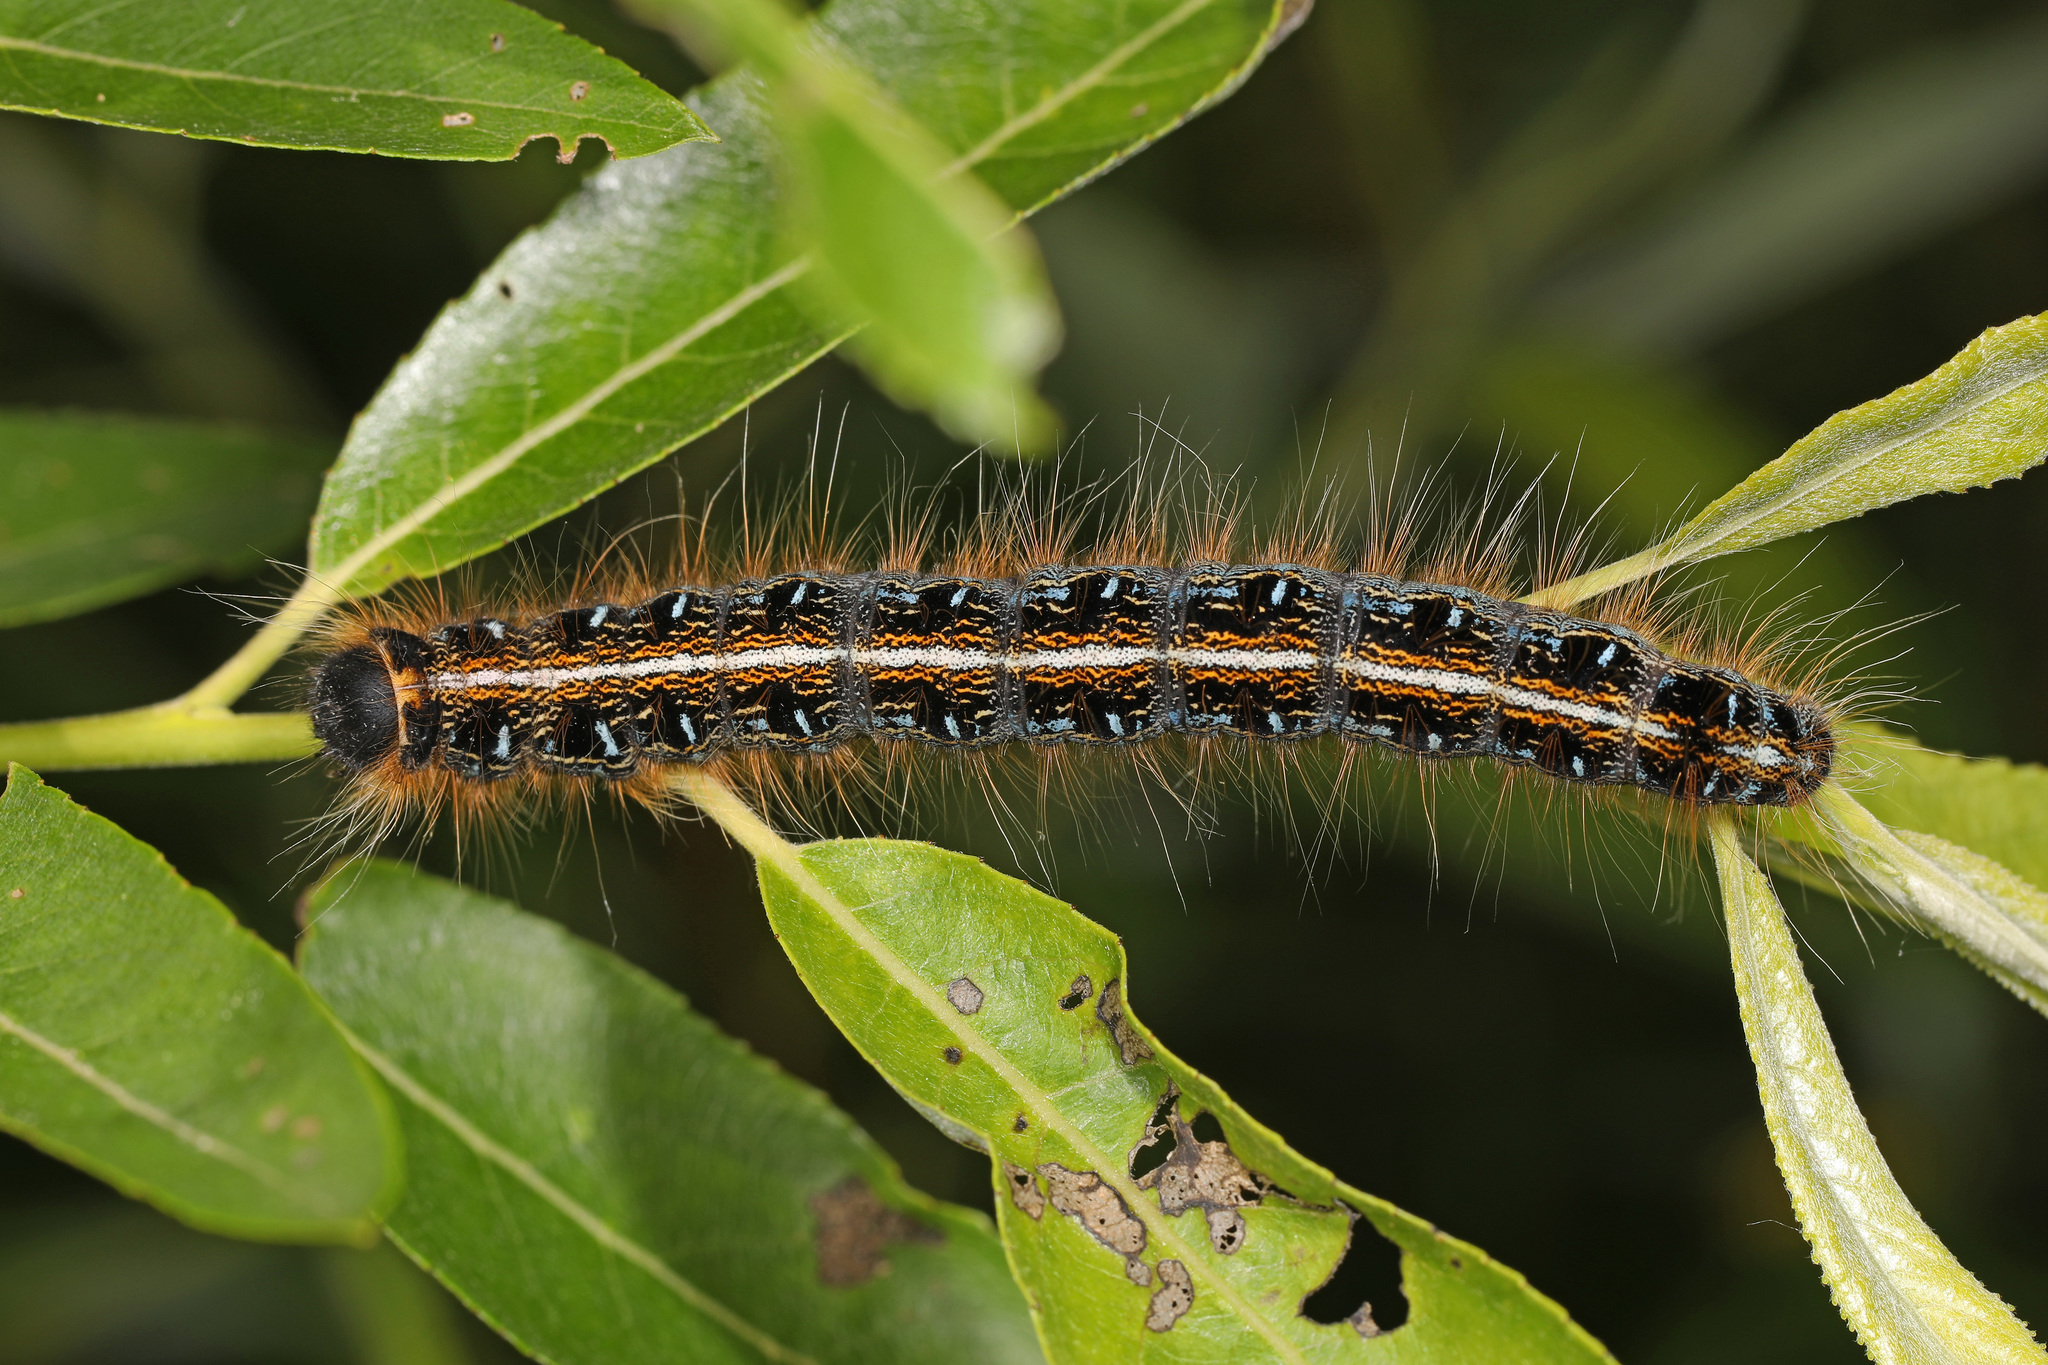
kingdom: Animalia
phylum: Arthropoda
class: Insecta
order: Lepidoptera
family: Lasiocampidae
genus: Malacosoma
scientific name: Malacosoma americana
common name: Eastern tent caterpillar moth
